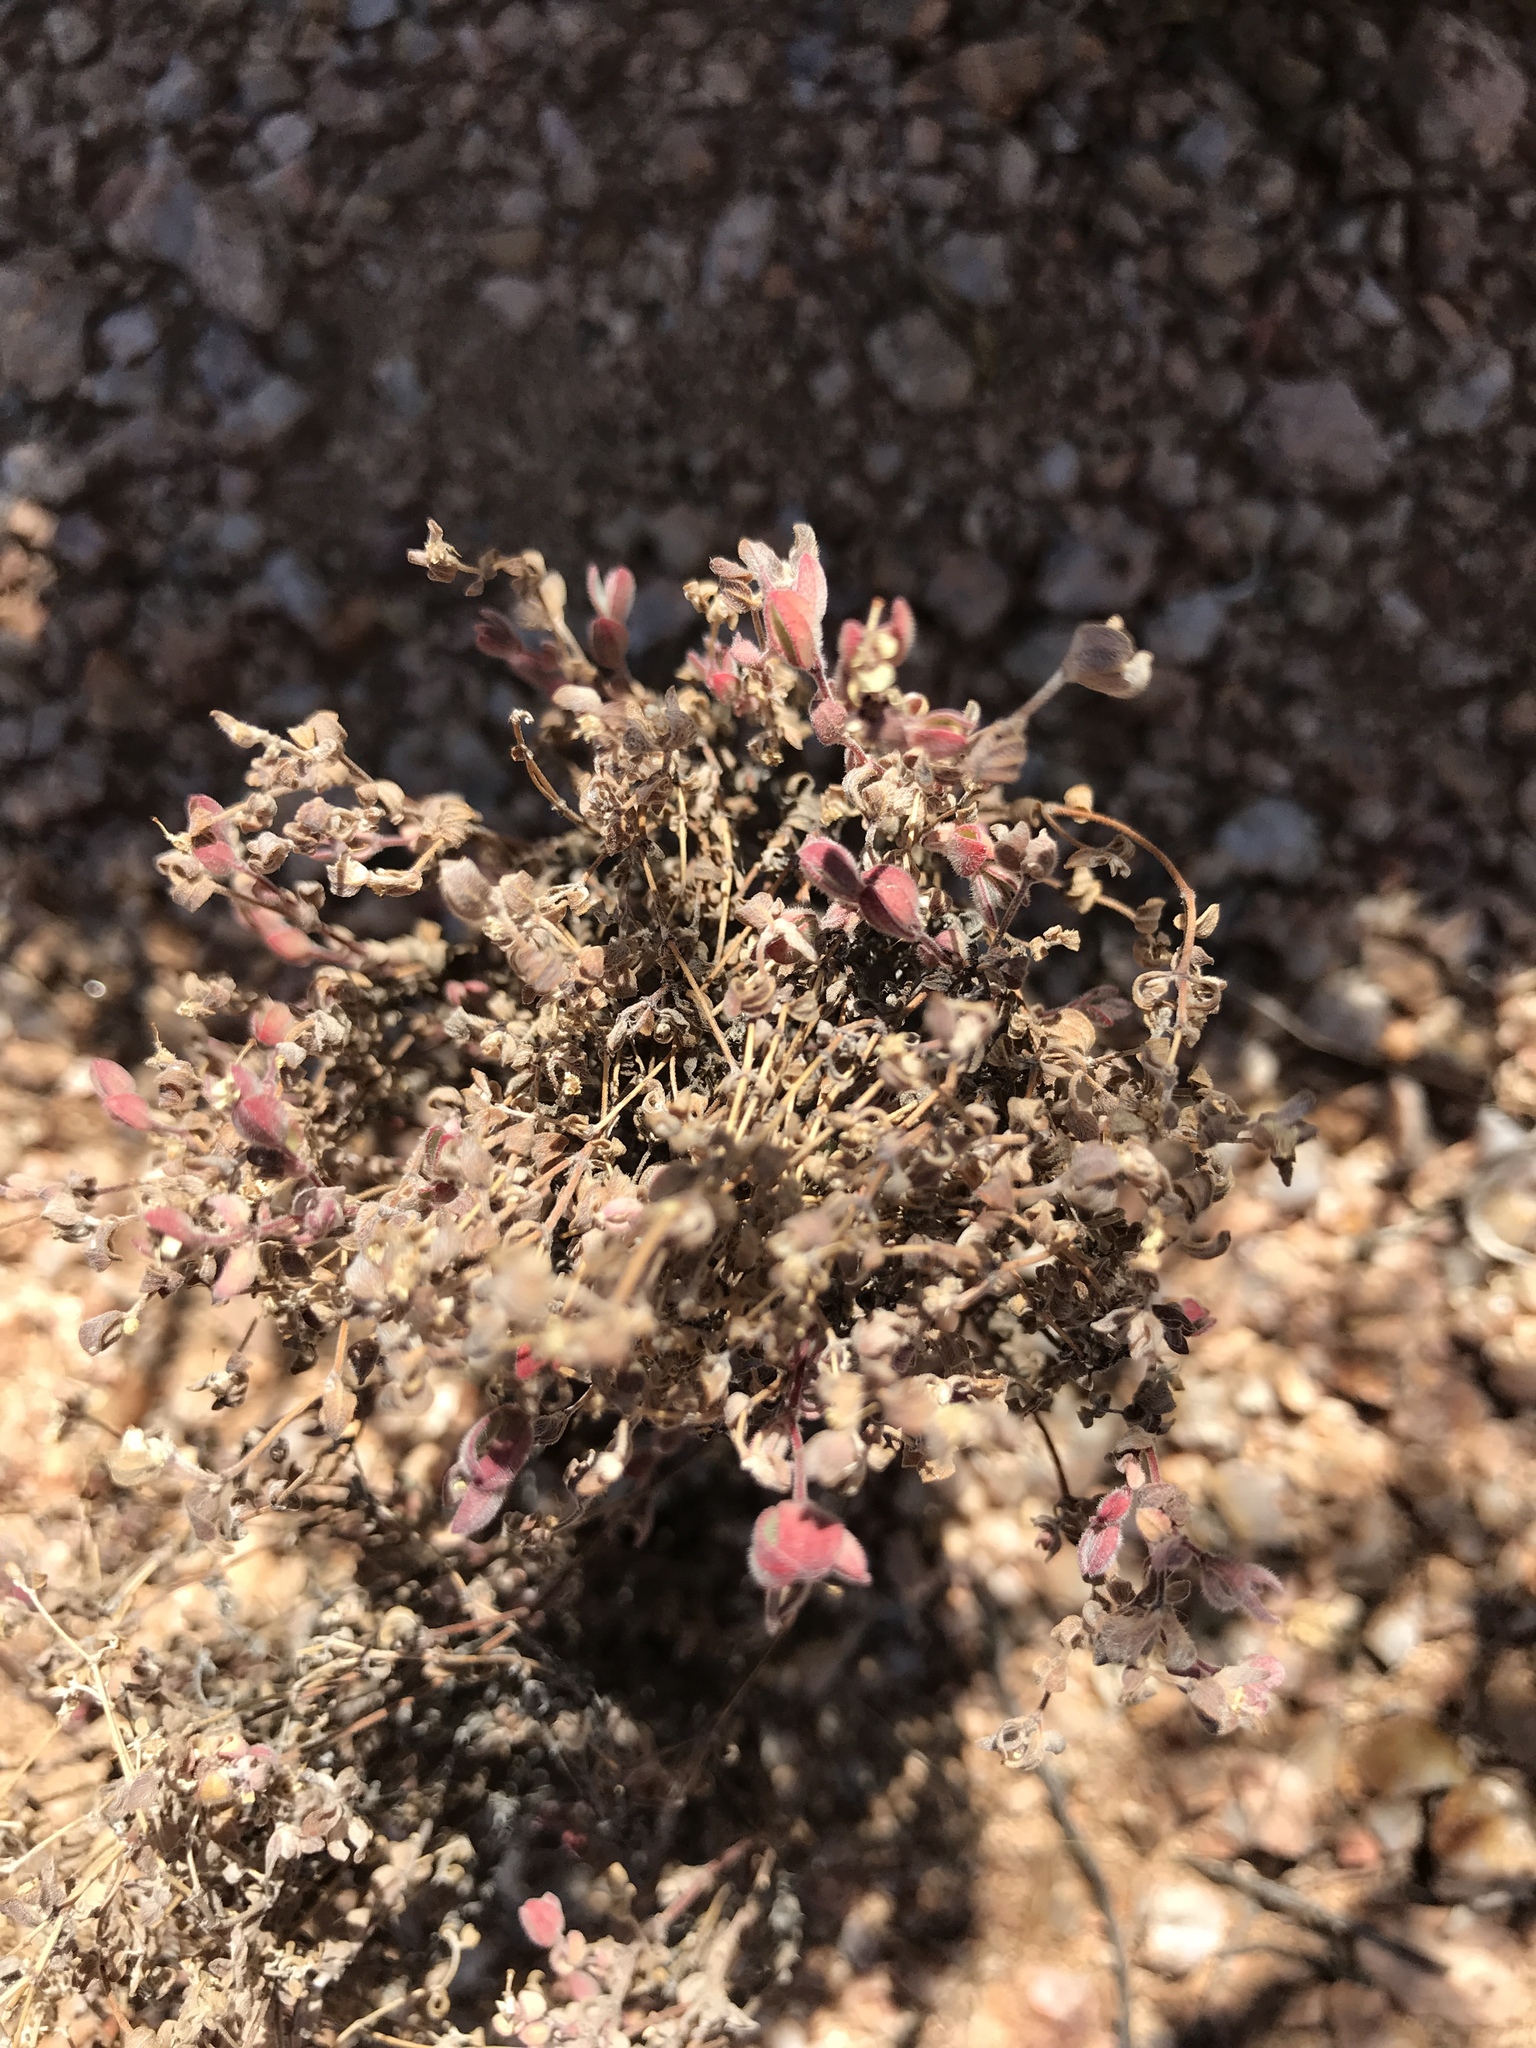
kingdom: Plantae
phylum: Tracheophyta
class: Magnoliopsida
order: Malpighiales
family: Euphorbiaceae
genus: Euphorbia
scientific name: Euphorbia melanadenia
